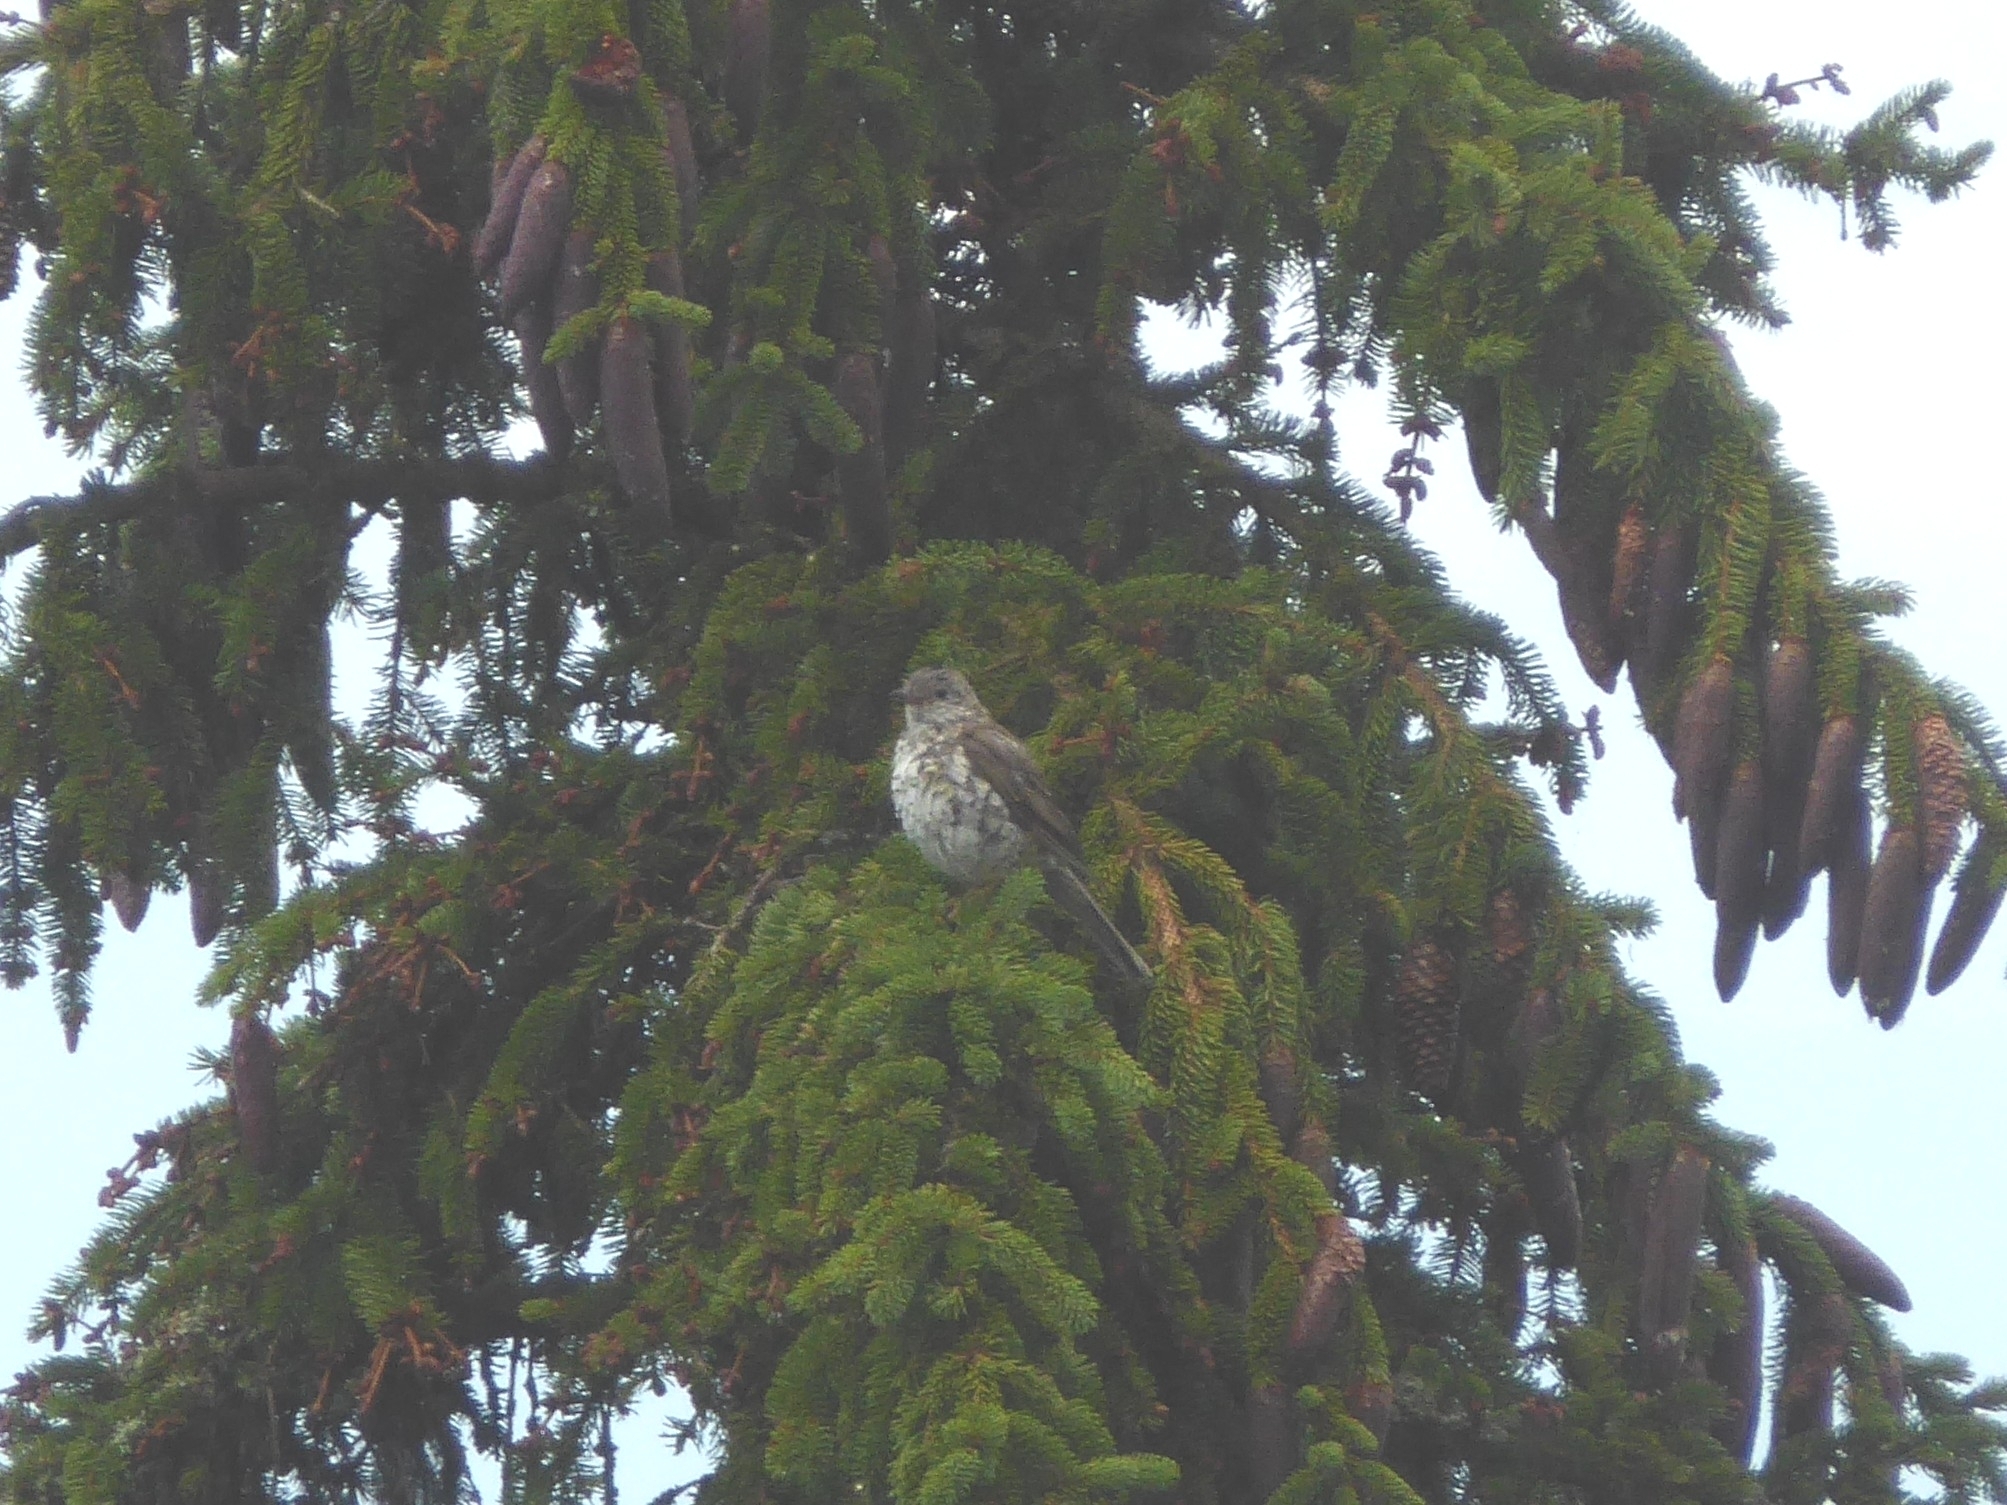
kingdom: Animalia
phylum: Chordata
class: Aves
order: Passeriformes
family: Turdidae
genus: Turdus
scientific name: Turdus viscivorus
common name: Mistle thrush
